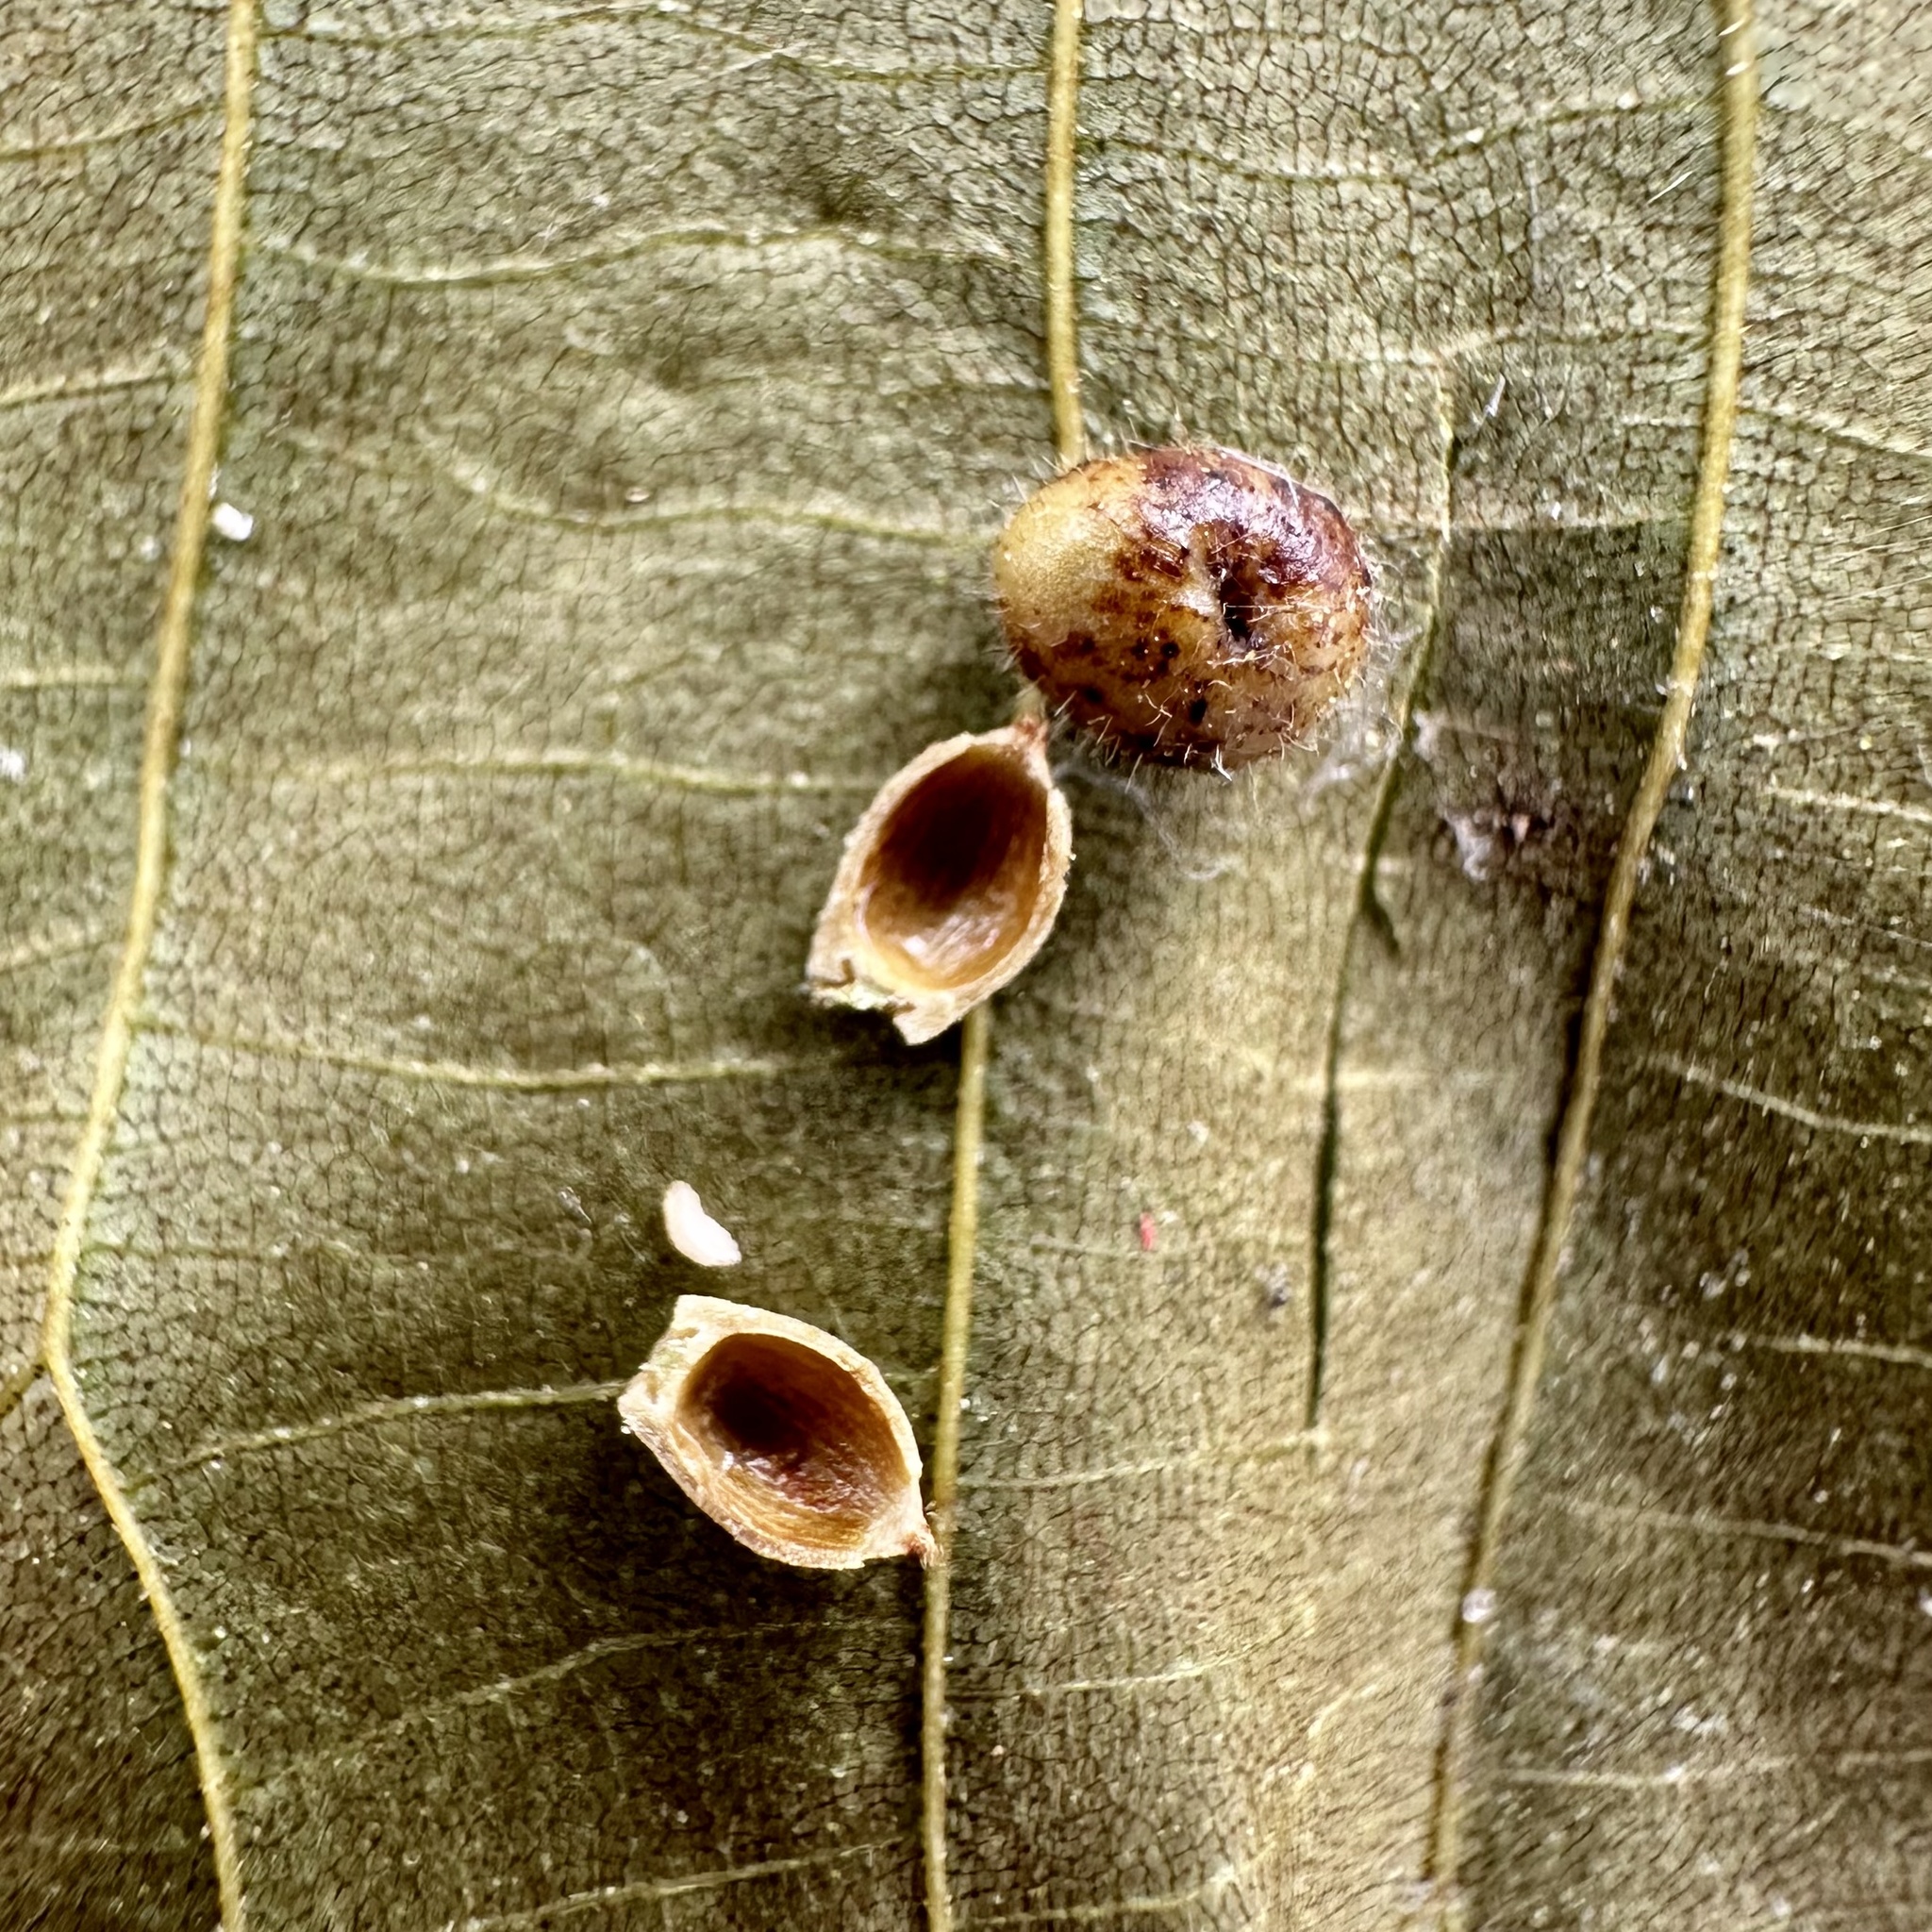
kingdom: Animalia
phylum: Arthropoda
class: Insecta
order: Diptera
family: Cecidomyiidae
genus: Caryomyia
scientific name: Caryomyia tuberidolium
